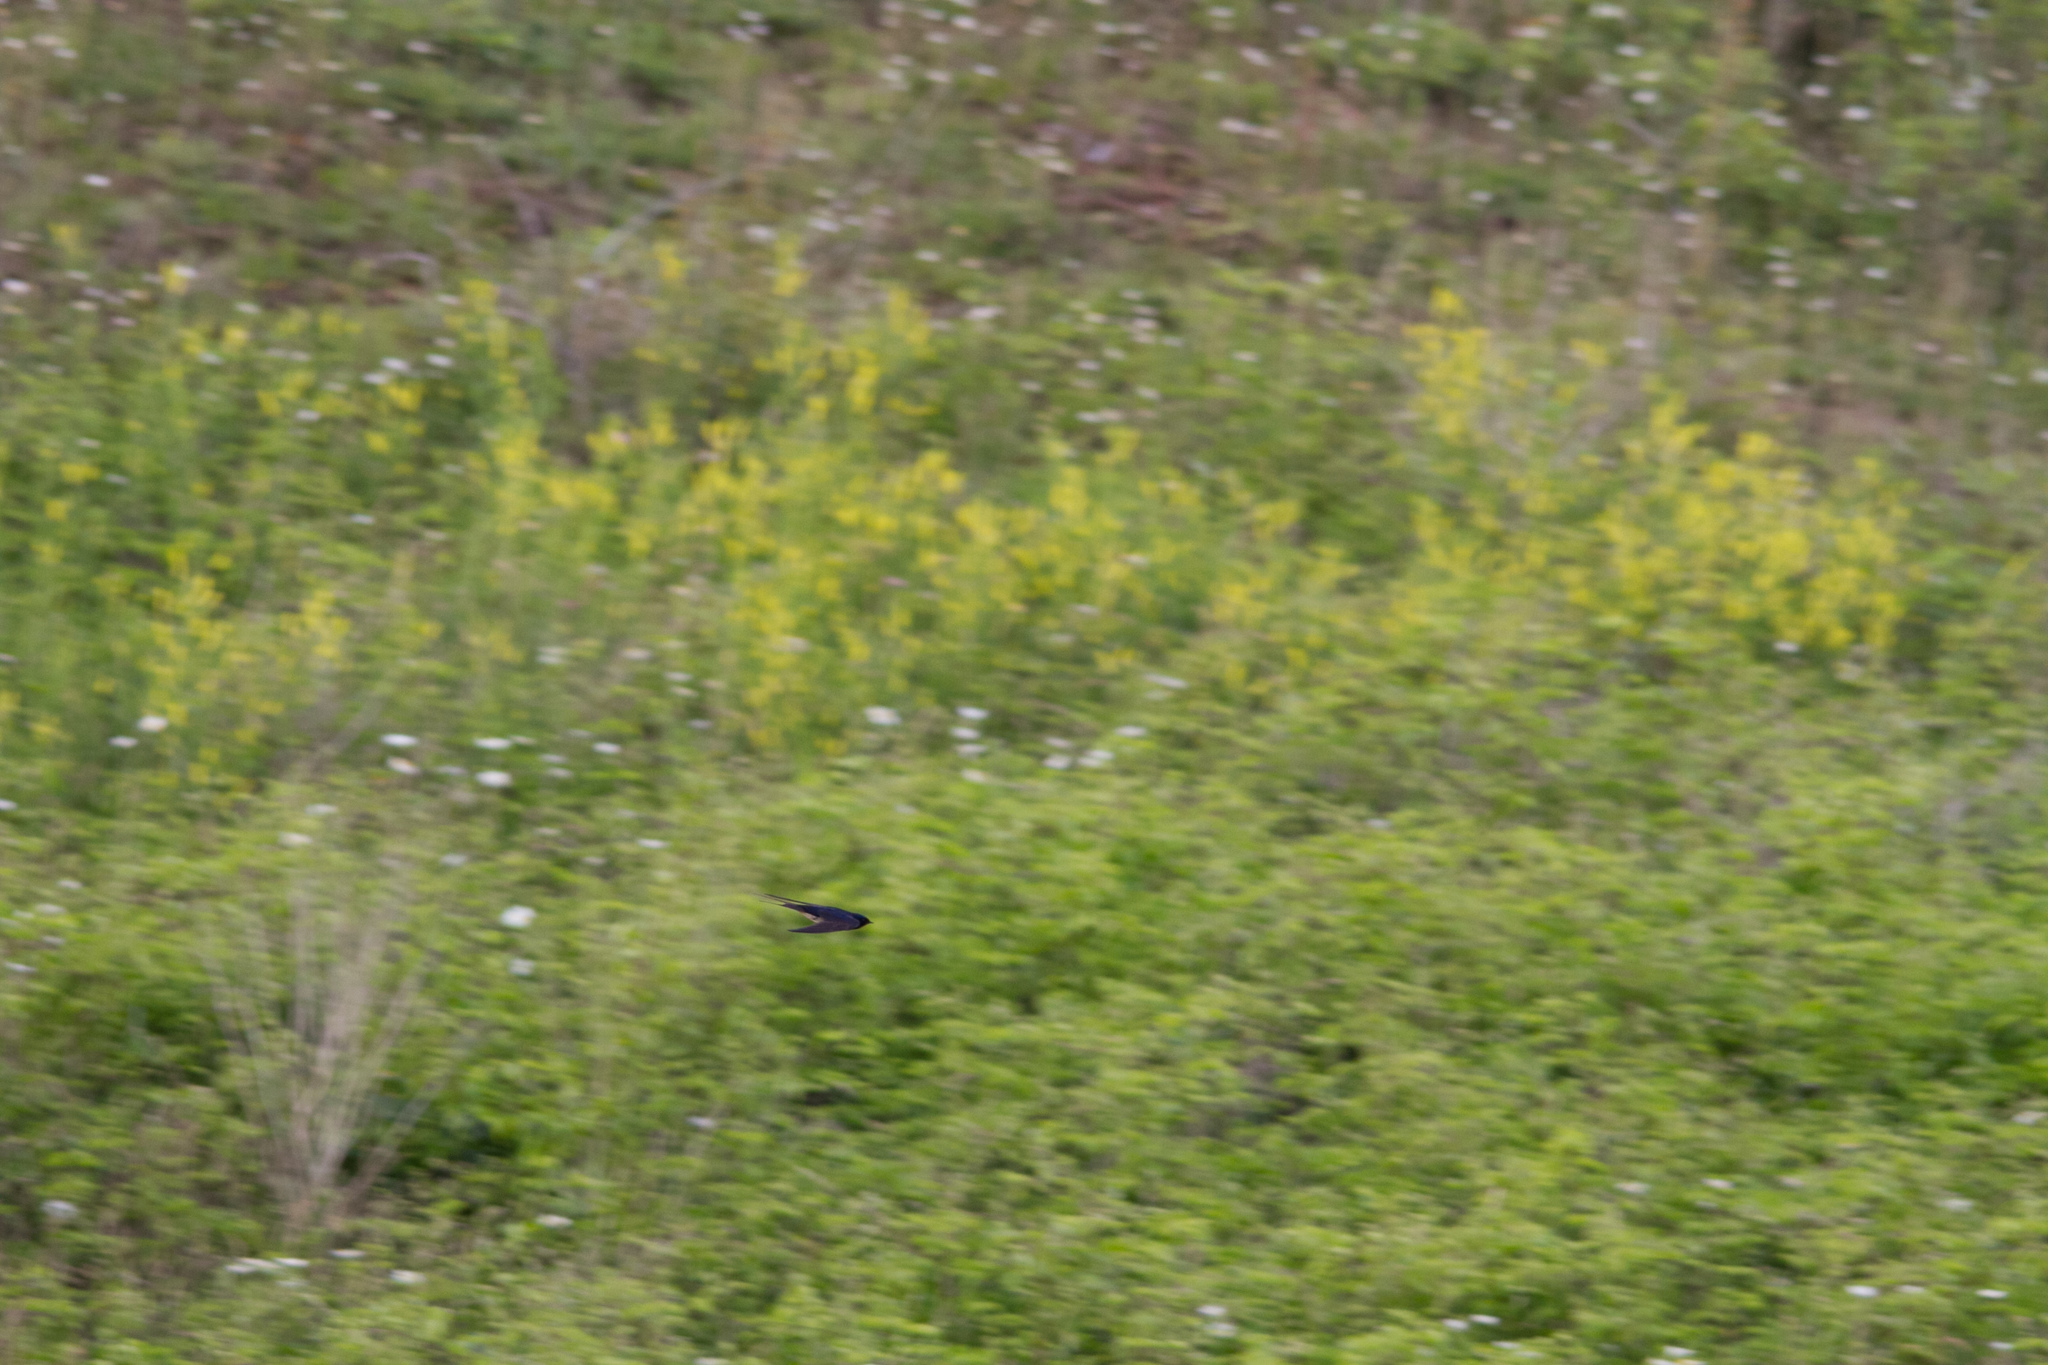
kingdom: Animalia
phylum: Chordata
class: Aves
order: Passeriformes
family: Hirundinidae
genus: Hirundo
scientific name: Hirundo rustica
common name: Barn swallow
